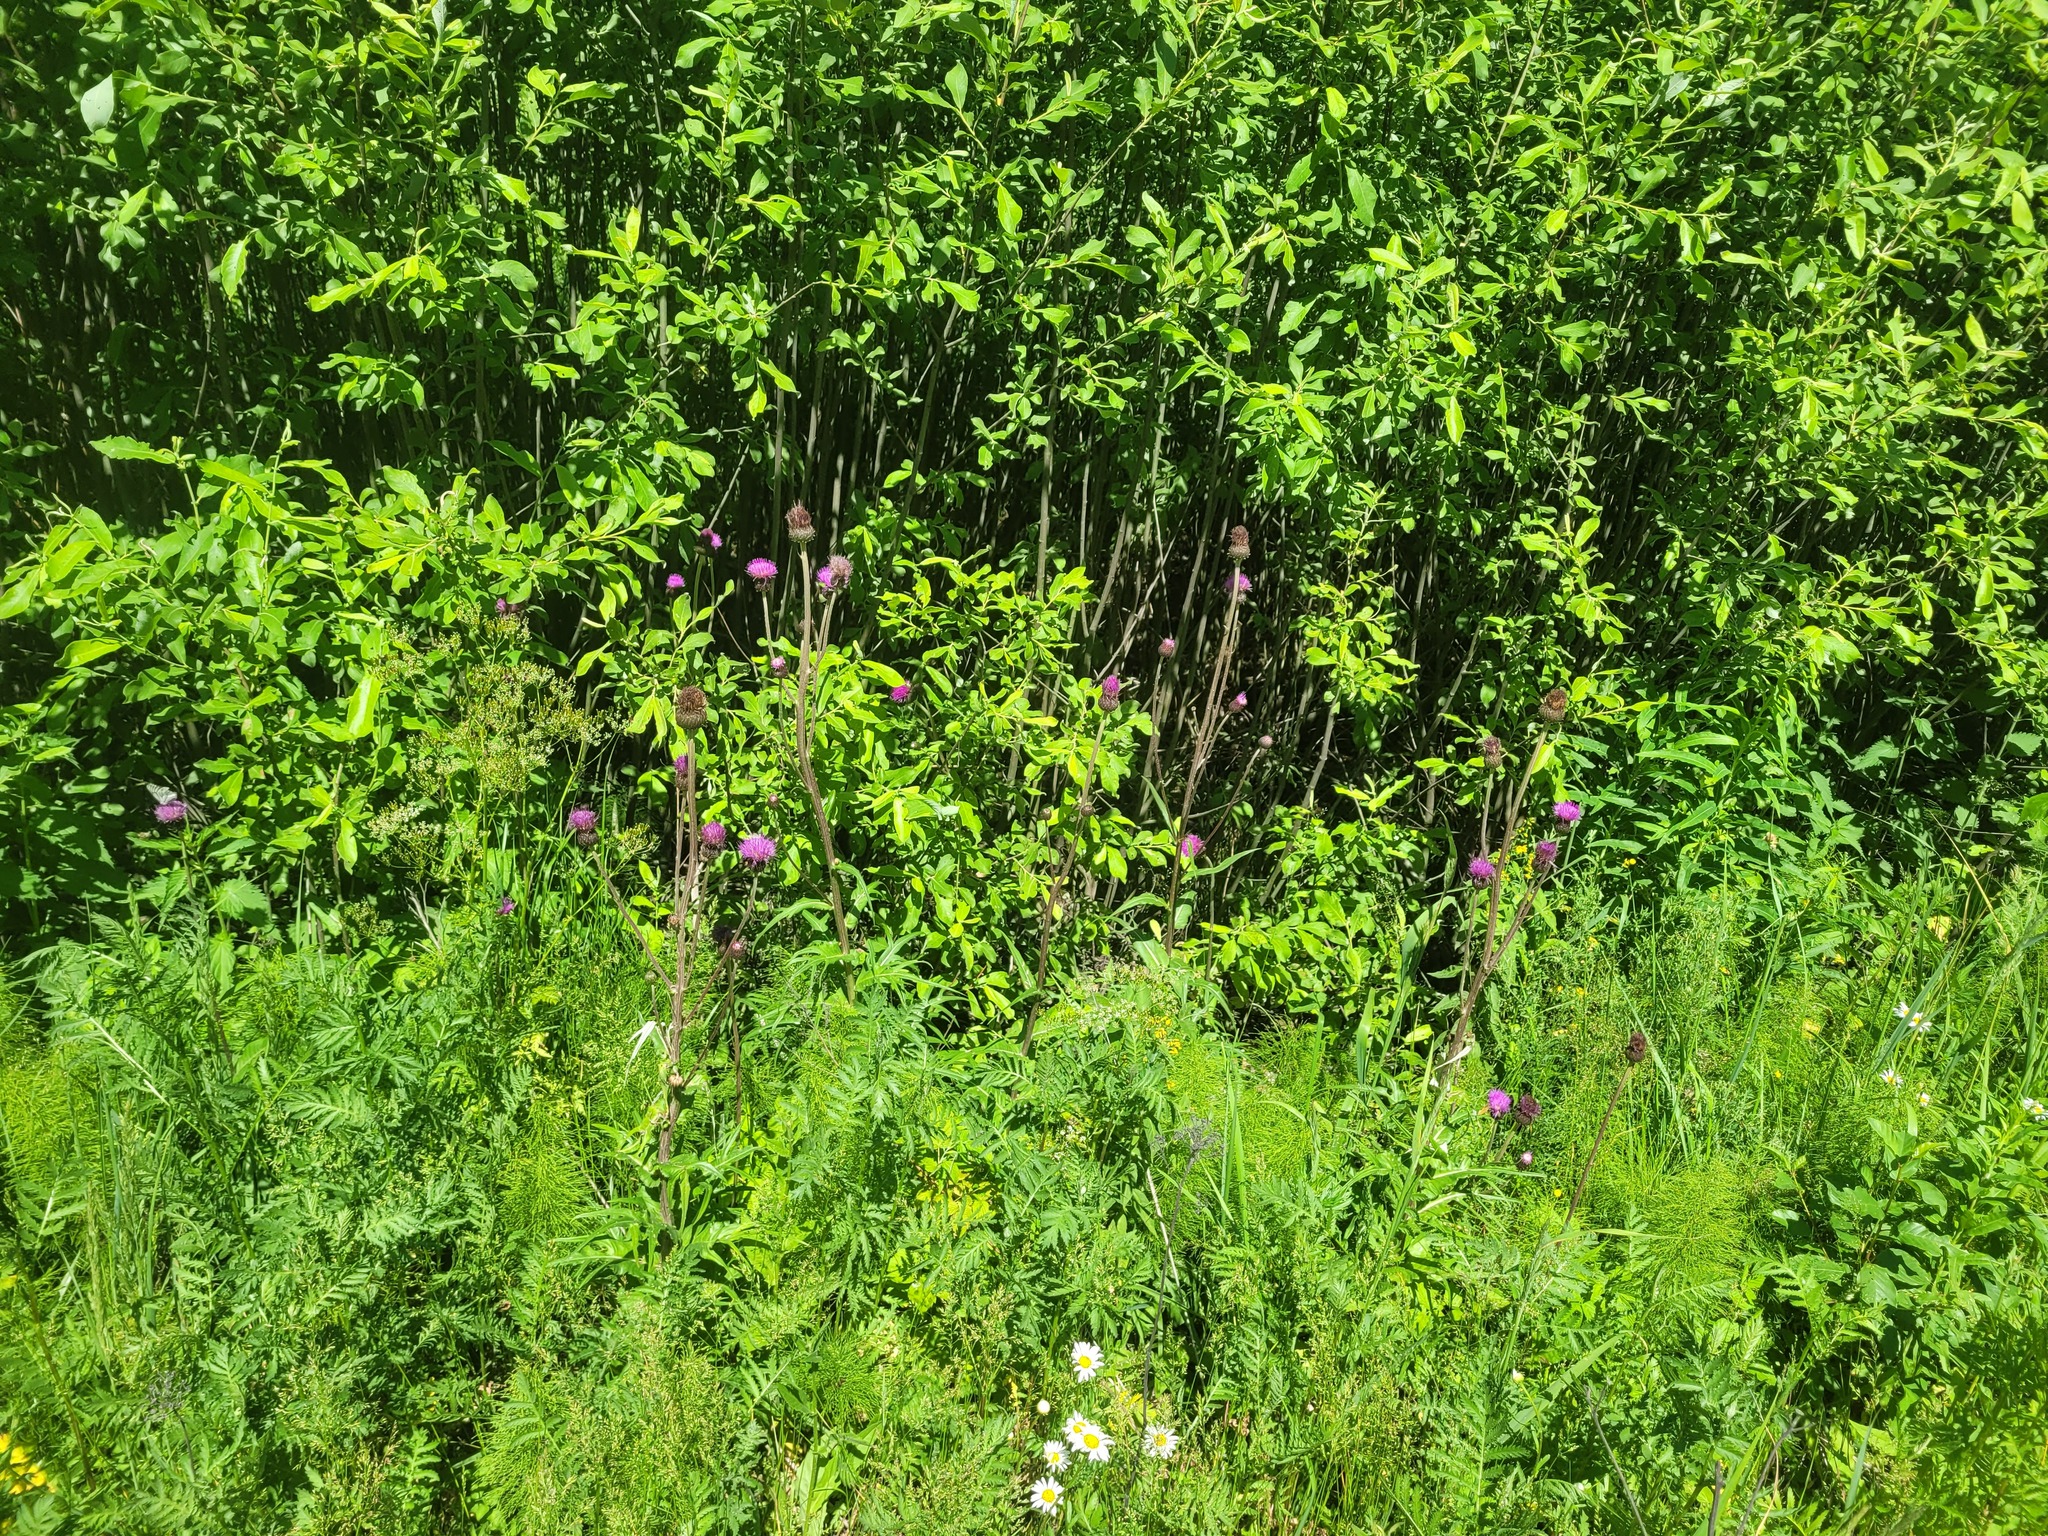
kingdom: Plantae
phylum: Tracheophyta
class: Magnoliopsida
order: Asterales
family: Asteraceae
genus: Cirsium
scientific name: Cirsium heterophyllum
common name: Melancholy thistle
